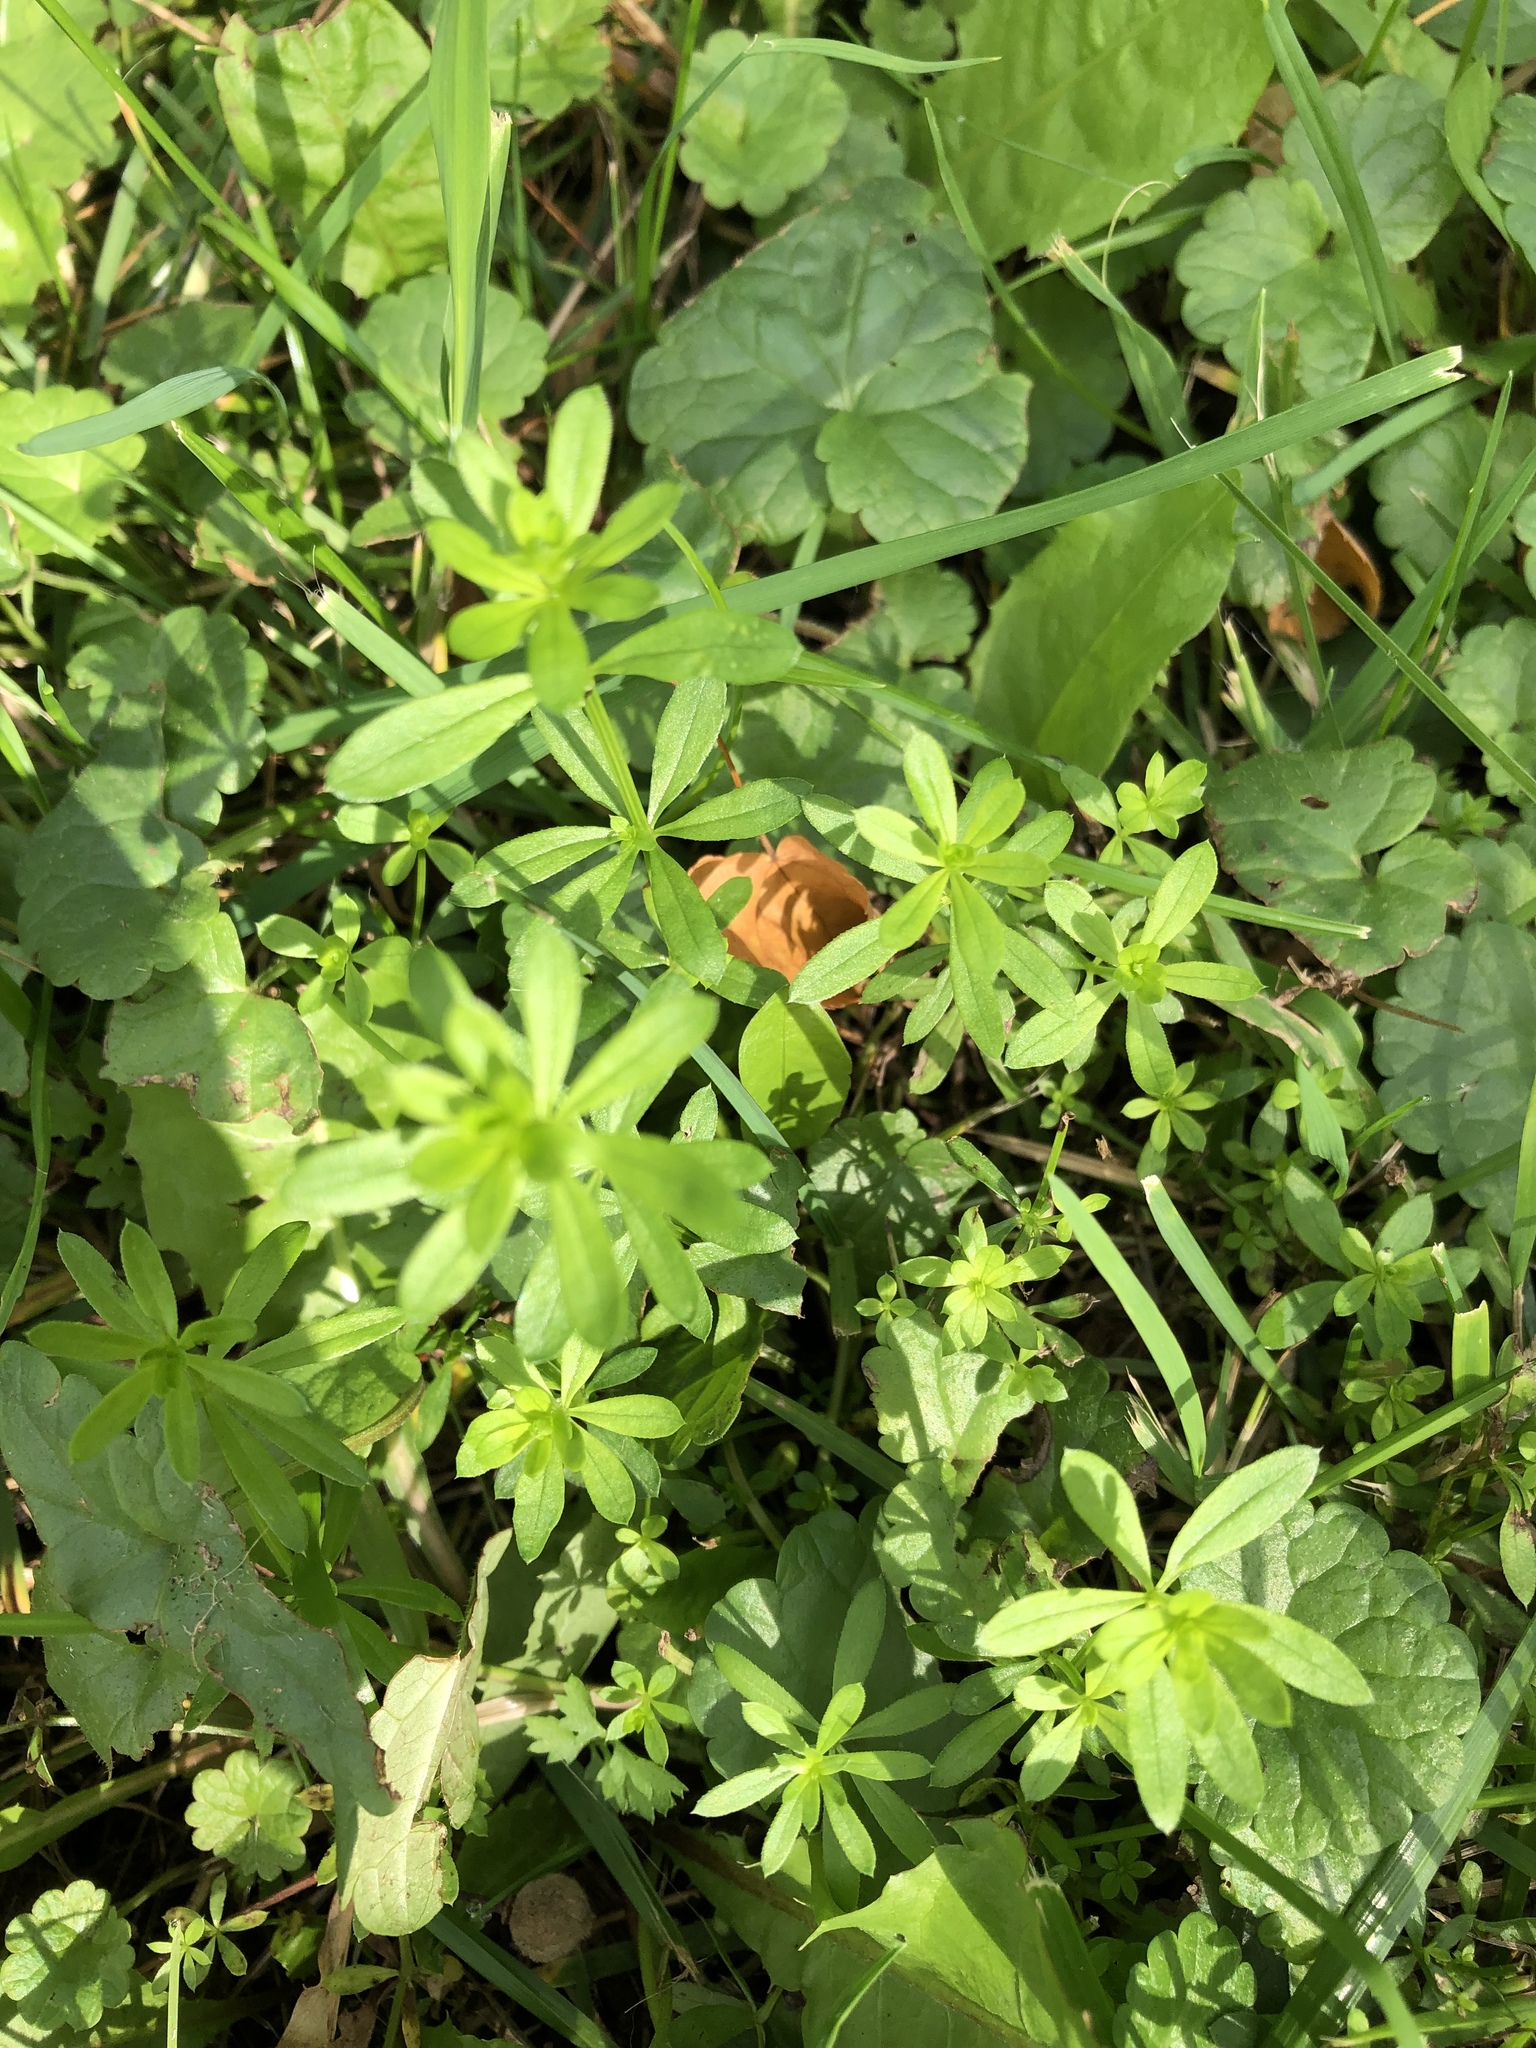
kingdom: Plantae
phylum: Tracheophyta
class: Magnoliopsida
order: Gentianales
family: Rubiaceae
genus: Galium
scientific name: Galium mollugo
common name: Hedge bedstraw
